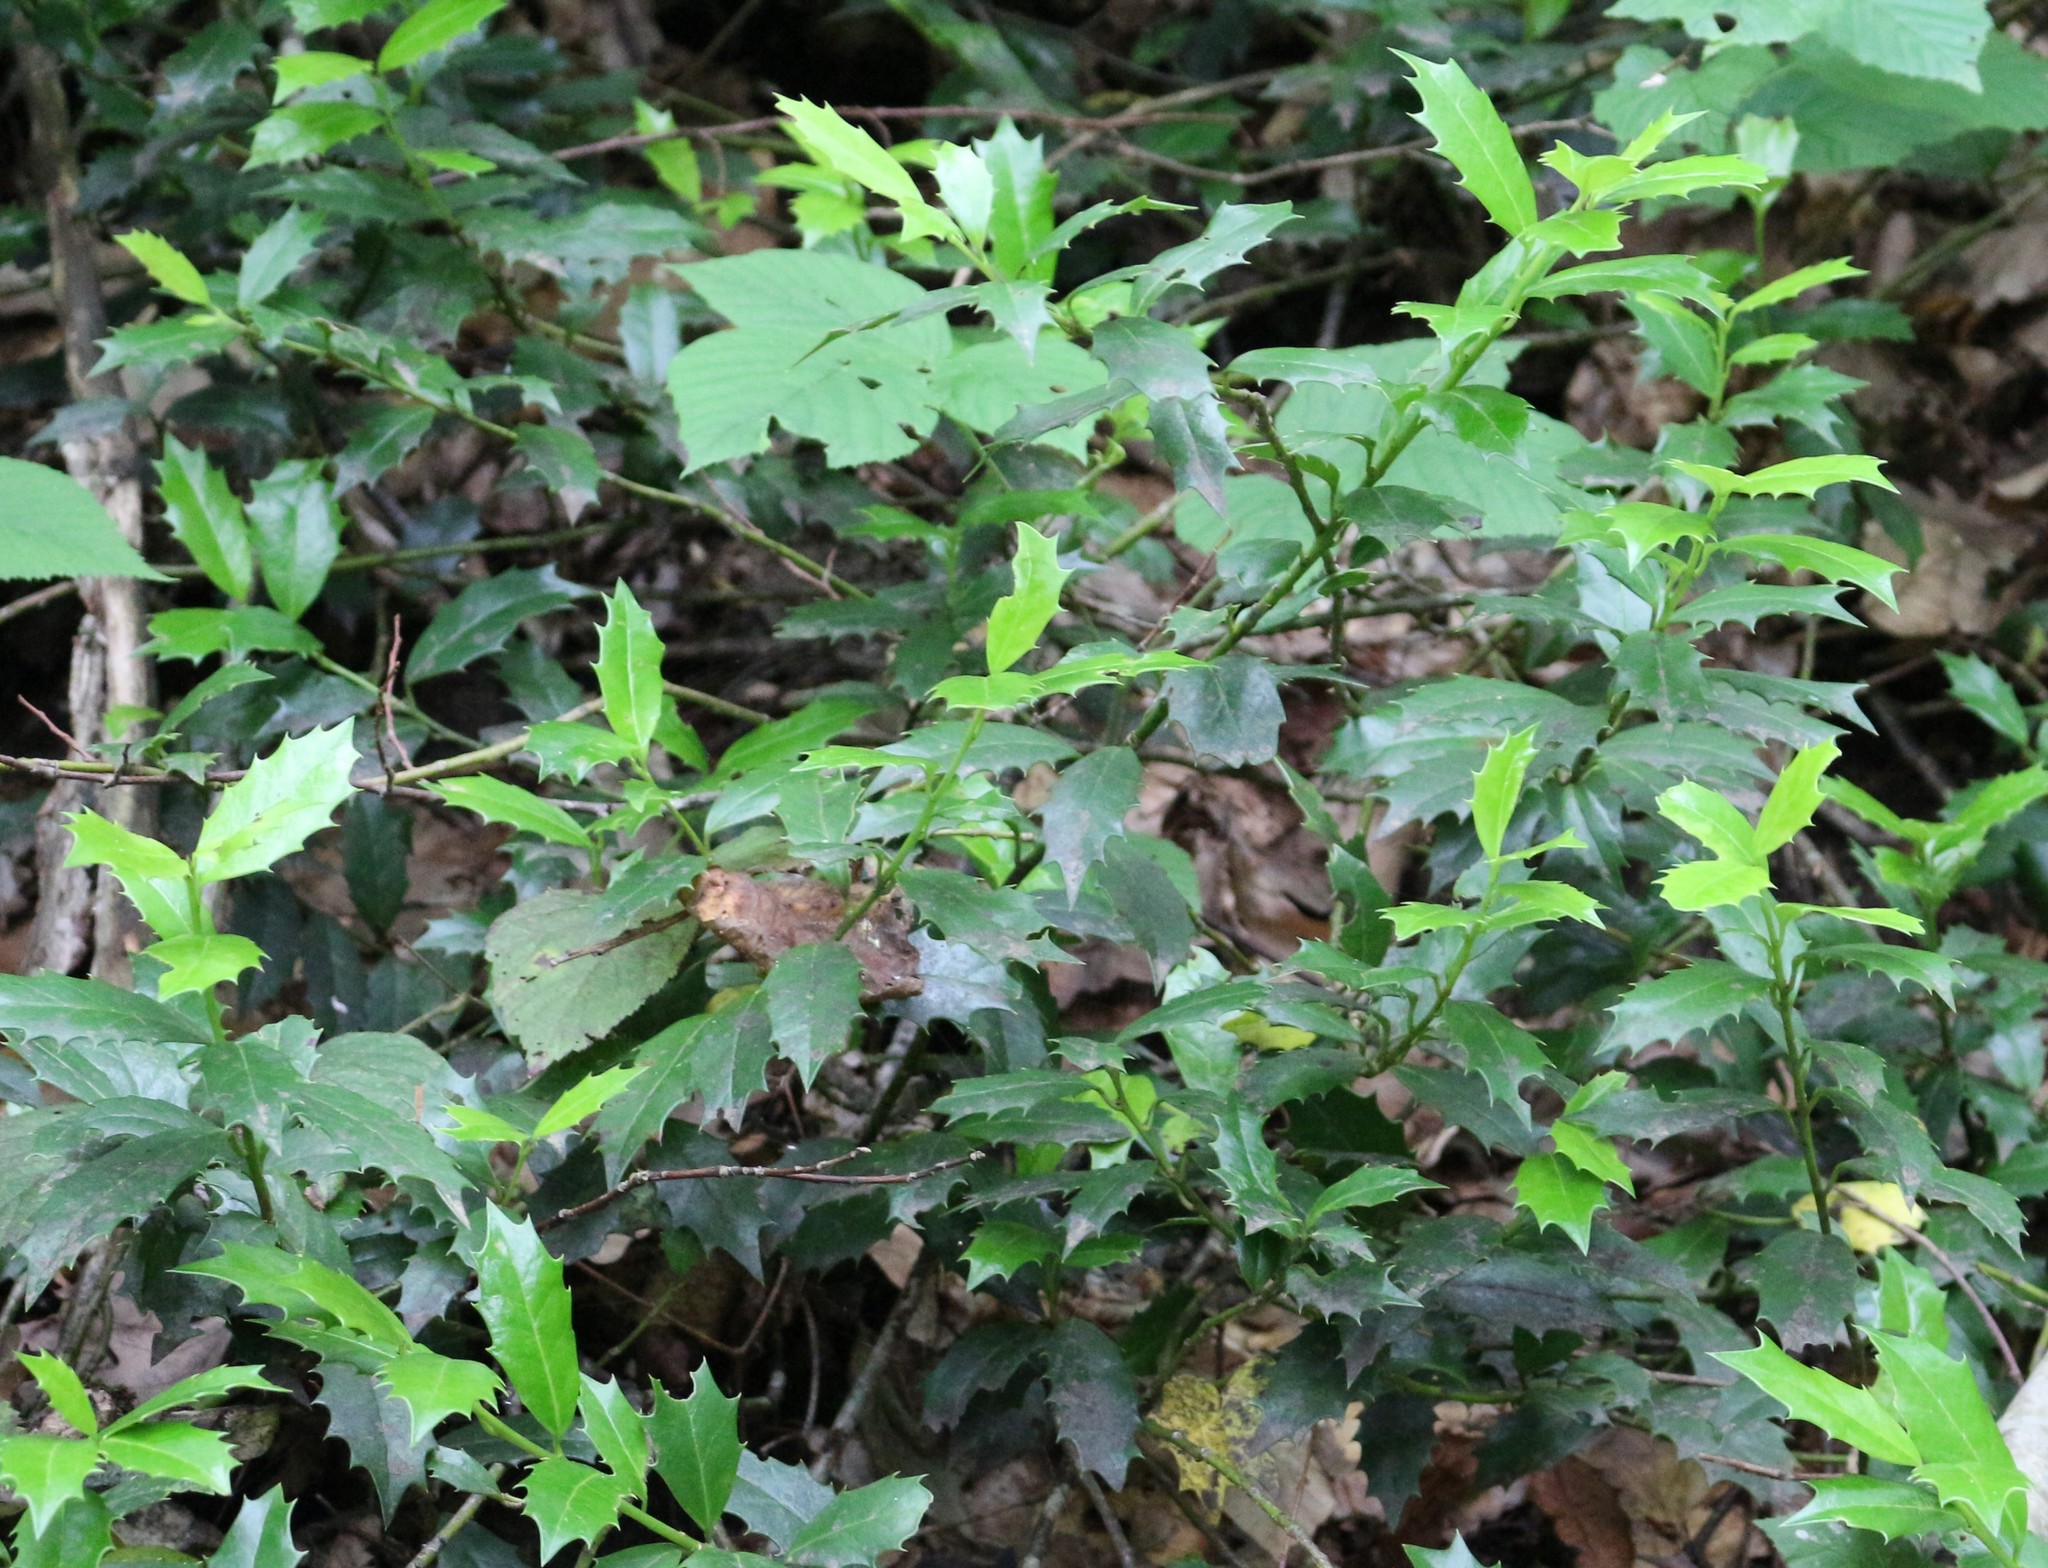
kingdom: Plantae
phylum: Tracheophyta
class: Magnoliopsida
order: Aquifoliales
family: Aquifoliaceae
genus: Ilex
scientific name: Ilex colchica
